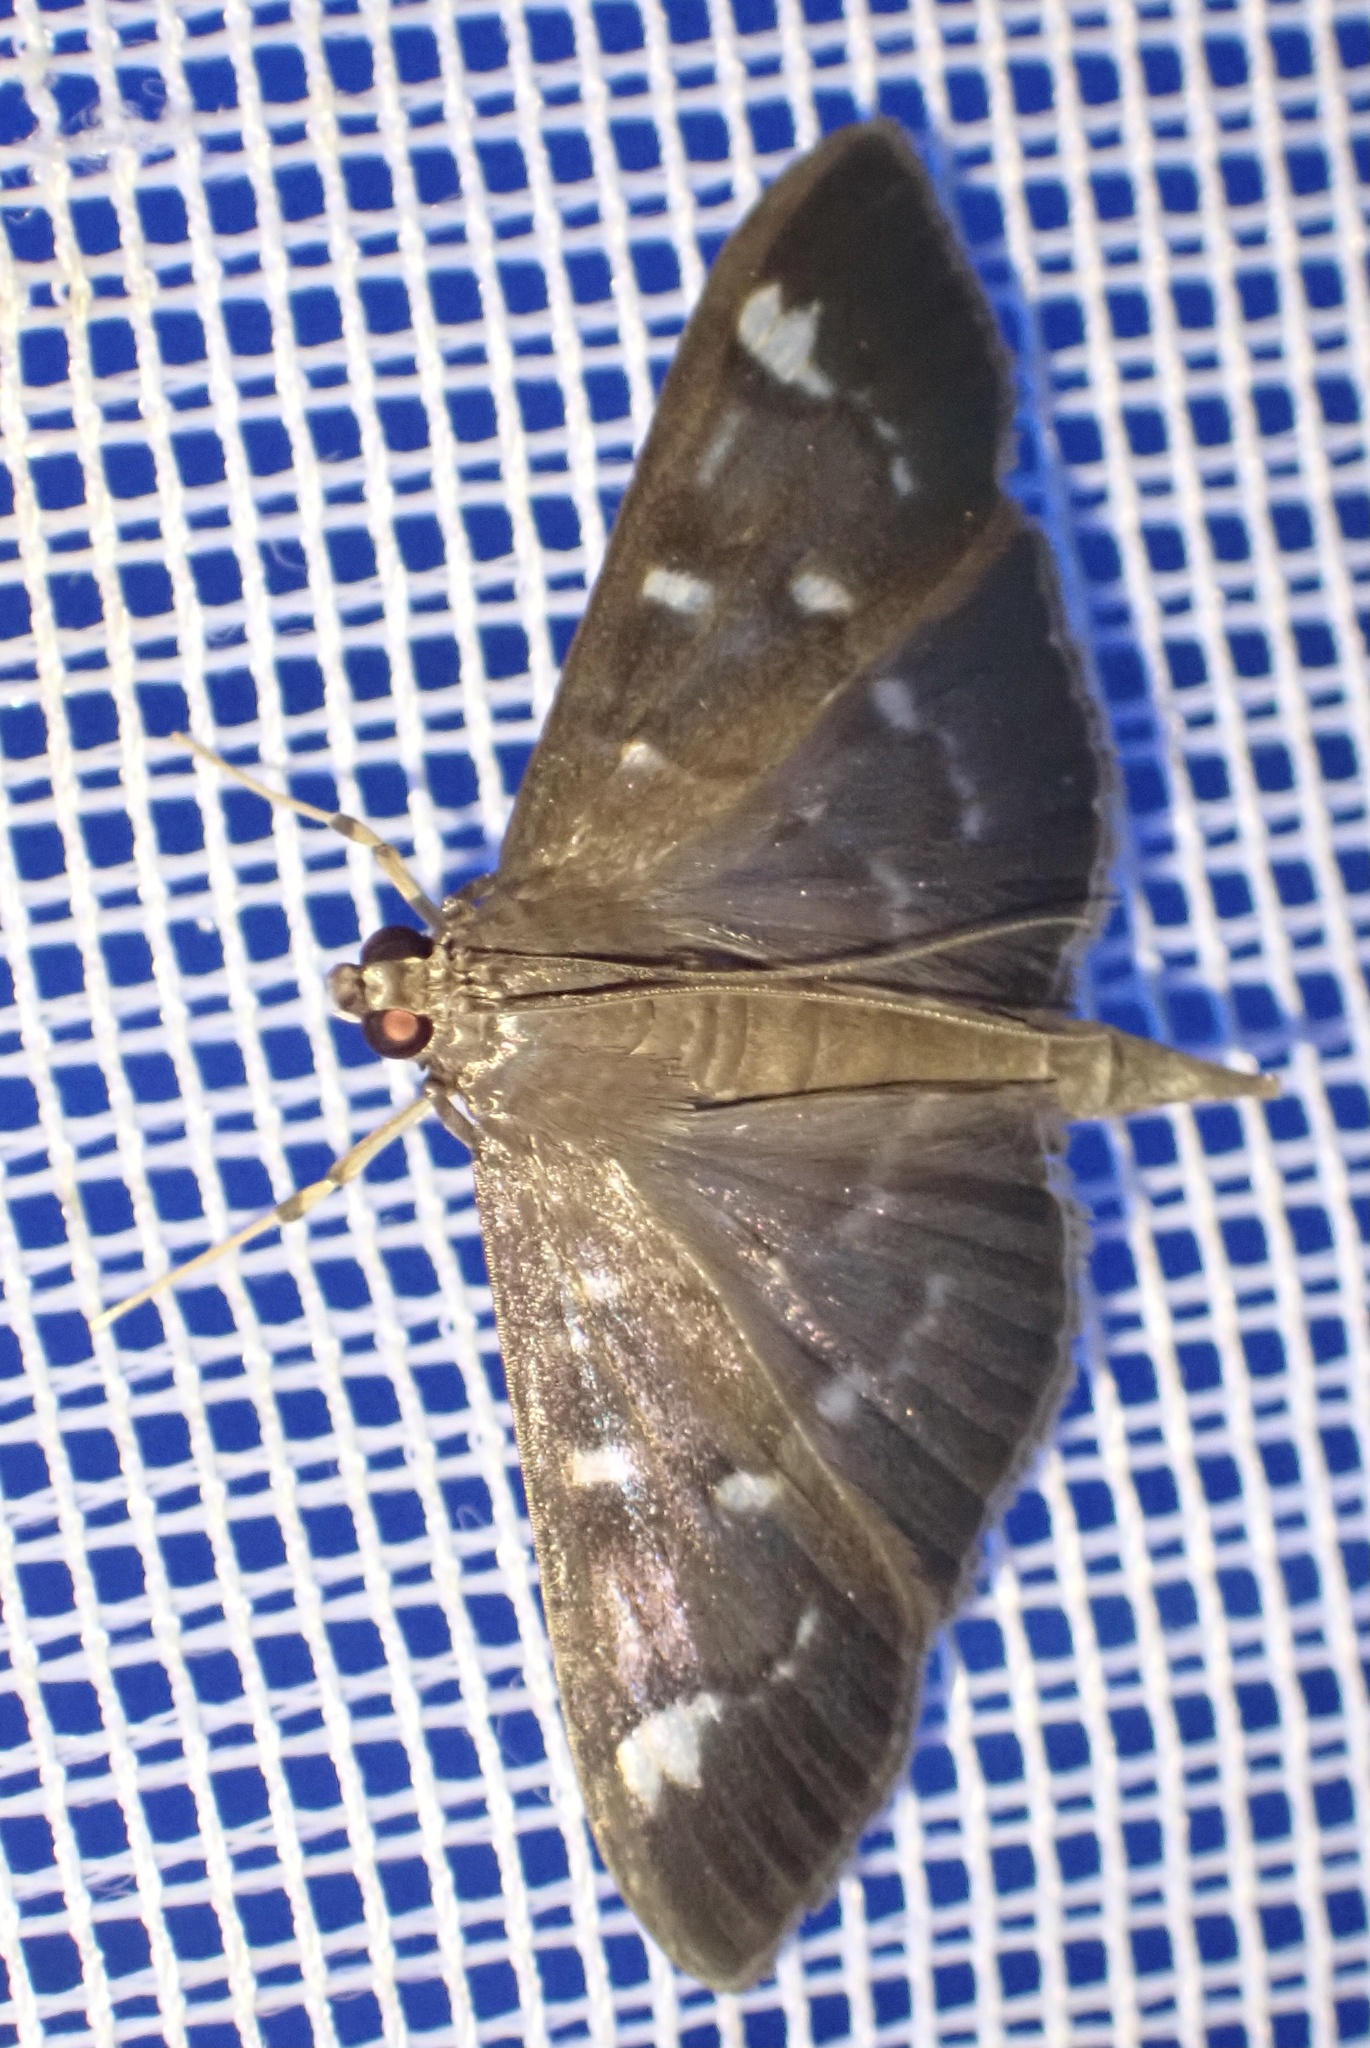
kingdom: Animalia
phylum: Arthropoda
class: Insecta
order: Lepidoptera
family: Crambidae
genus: Syllepte
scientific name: Syllepte ovialis
